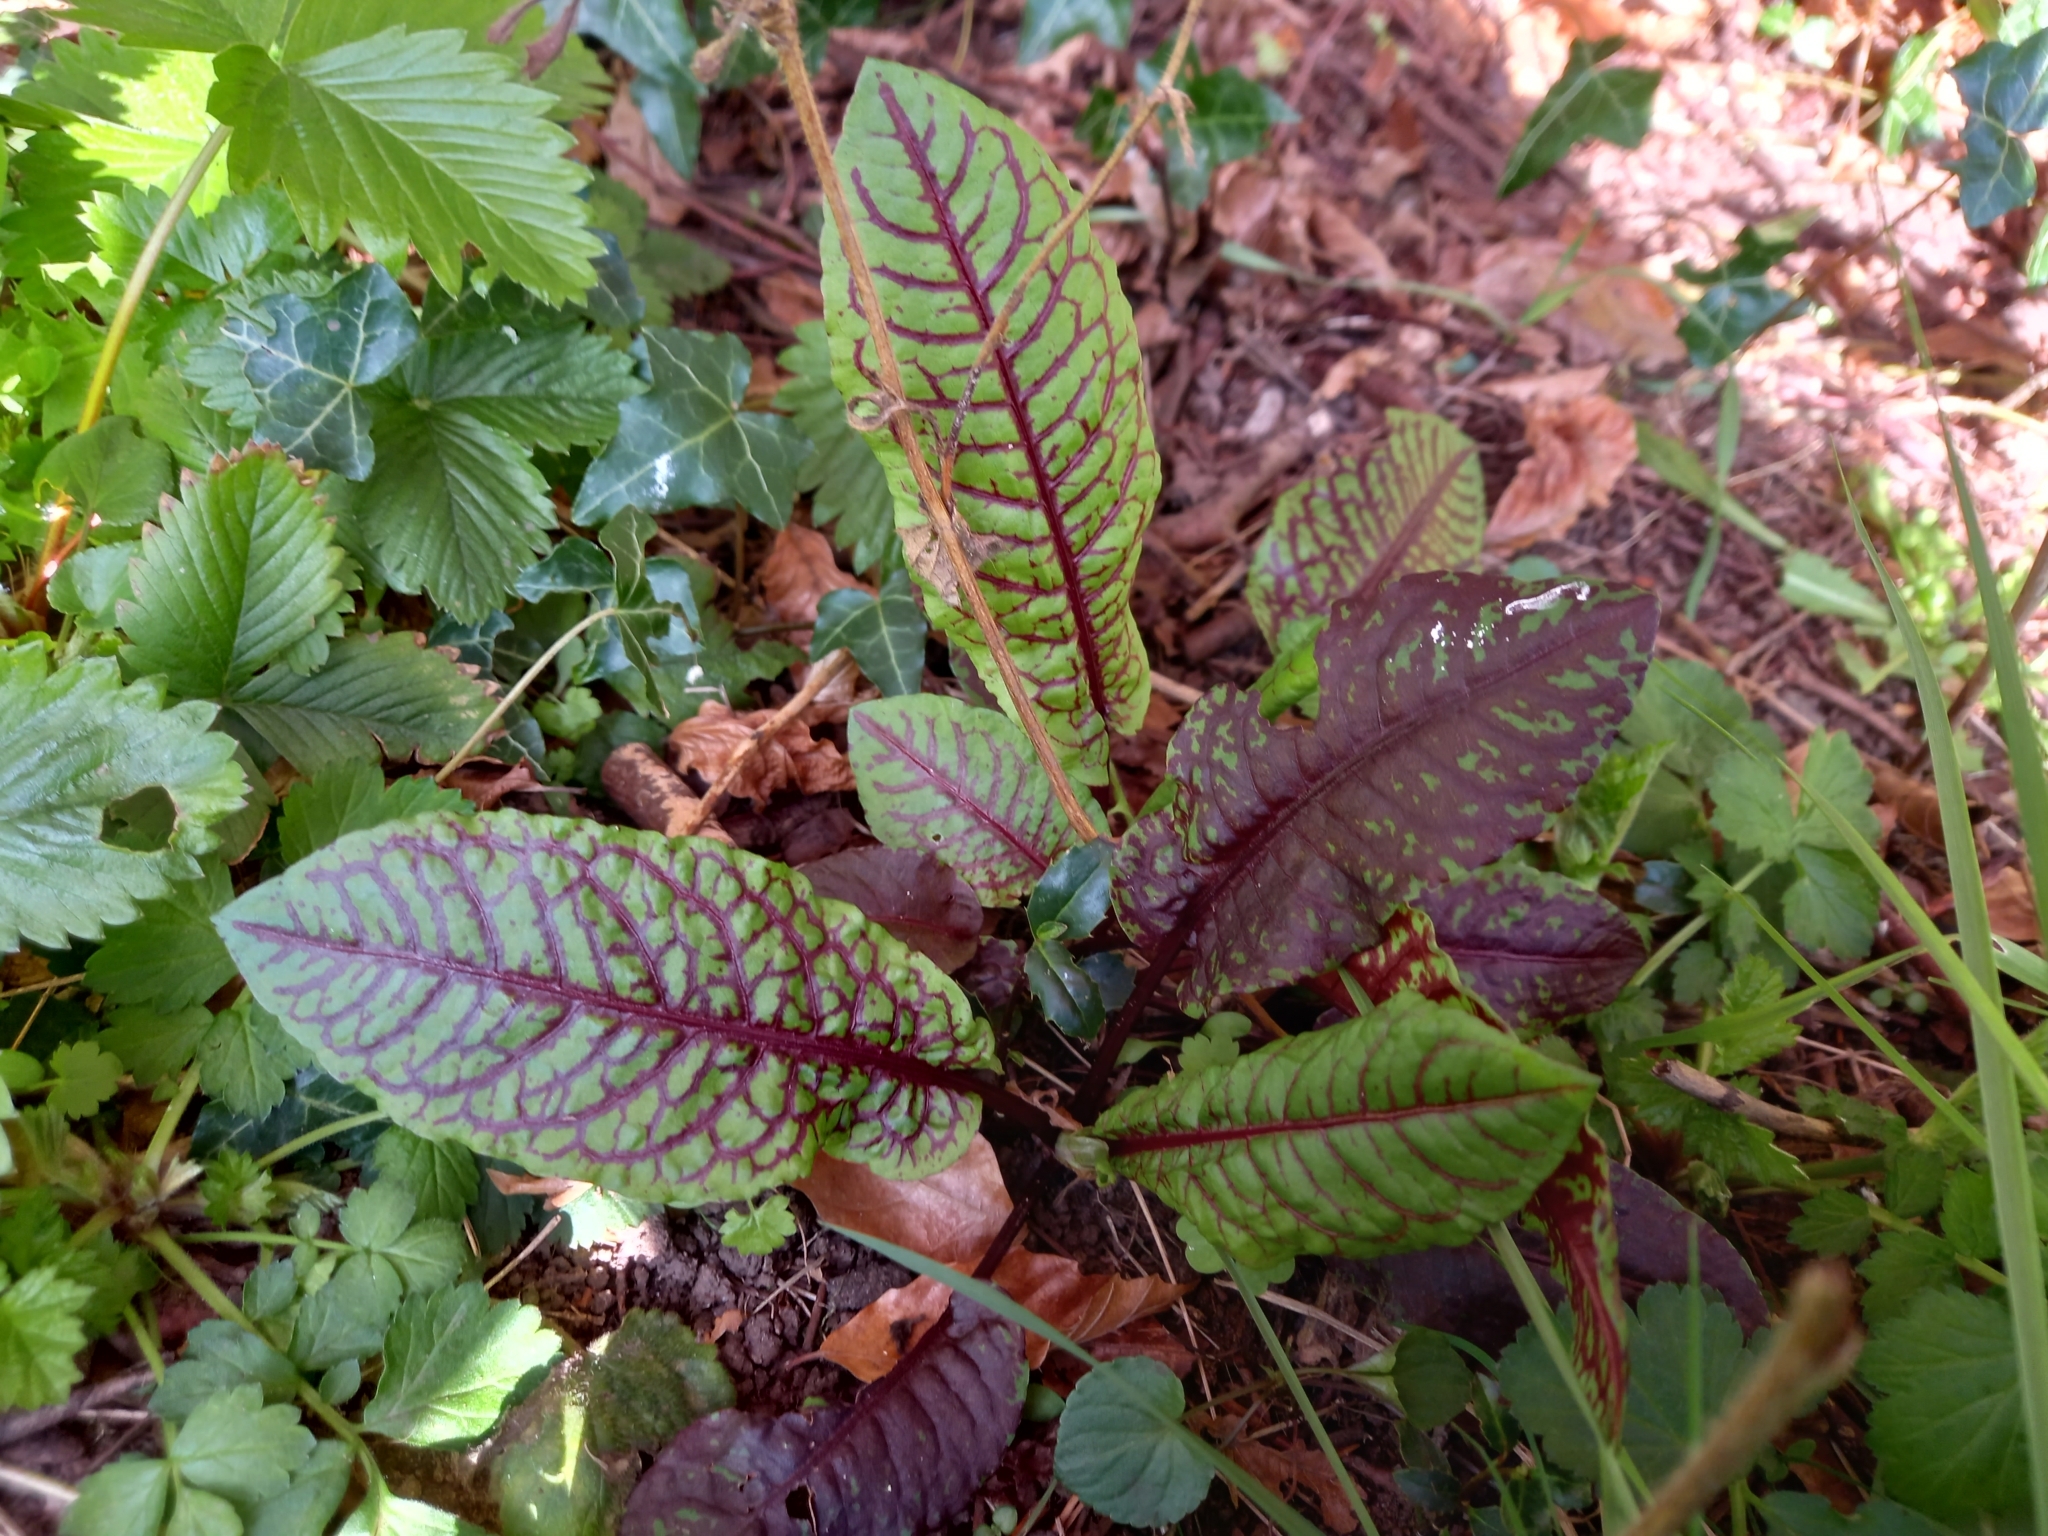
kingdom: Plantae
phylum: Tracheophyta
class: Magnoliopsida
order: Caryophyllales
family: Polygonaceae
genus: Rumex
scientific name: Rumex sanguineus
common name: Wood dock
